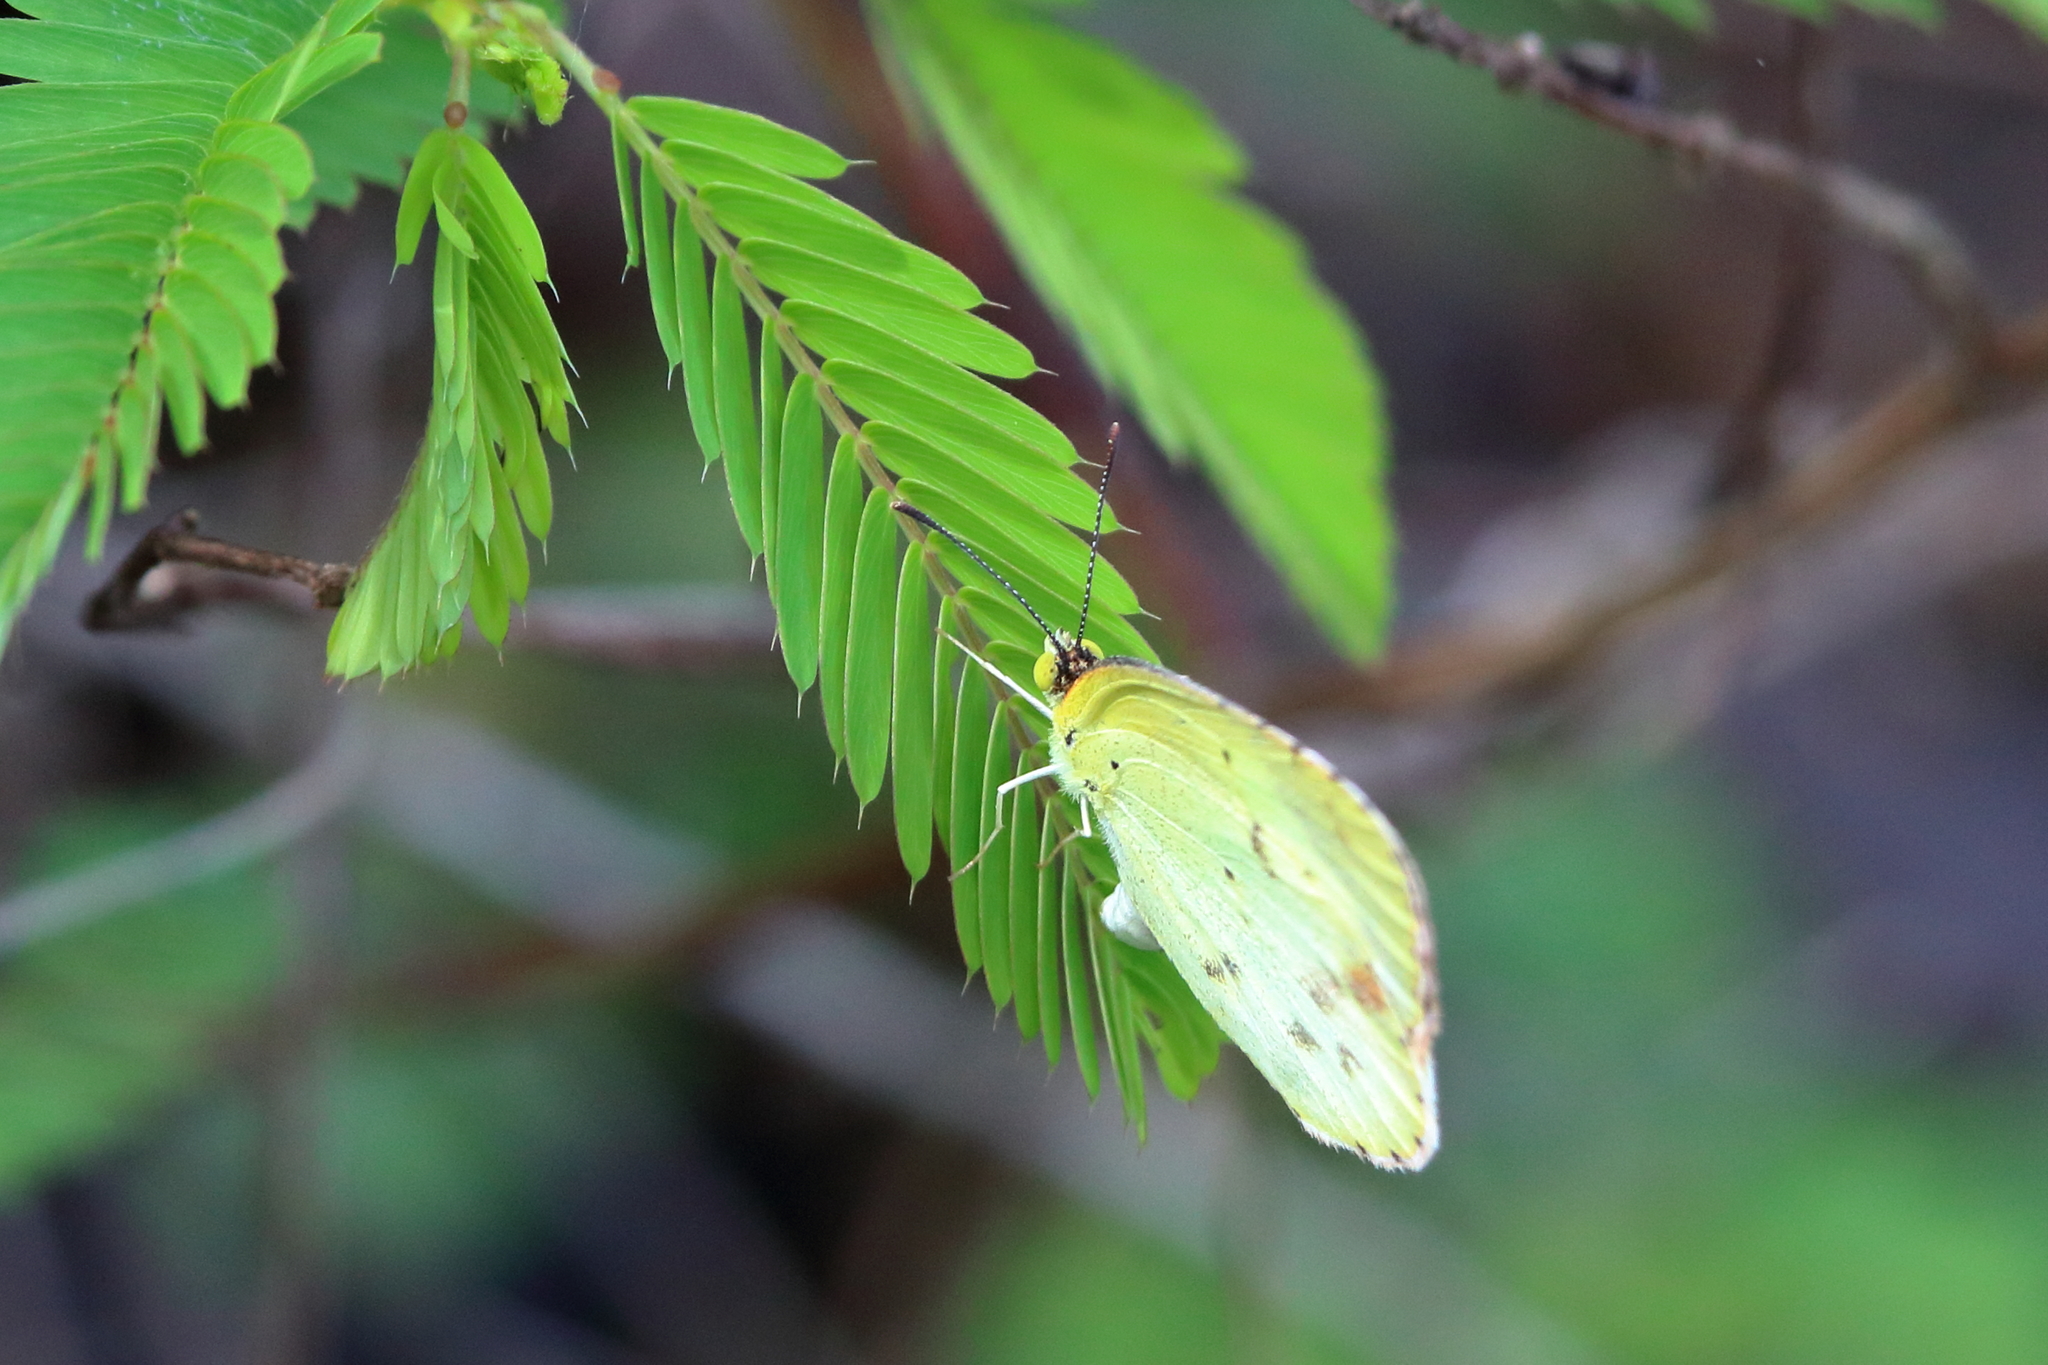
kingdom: Animalia
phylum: Arthropoda
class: Insecta
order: Lepidoptera
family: Pieridae
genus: Pyrisitia
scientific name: Pyrisitia lisa
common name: Little yellow
